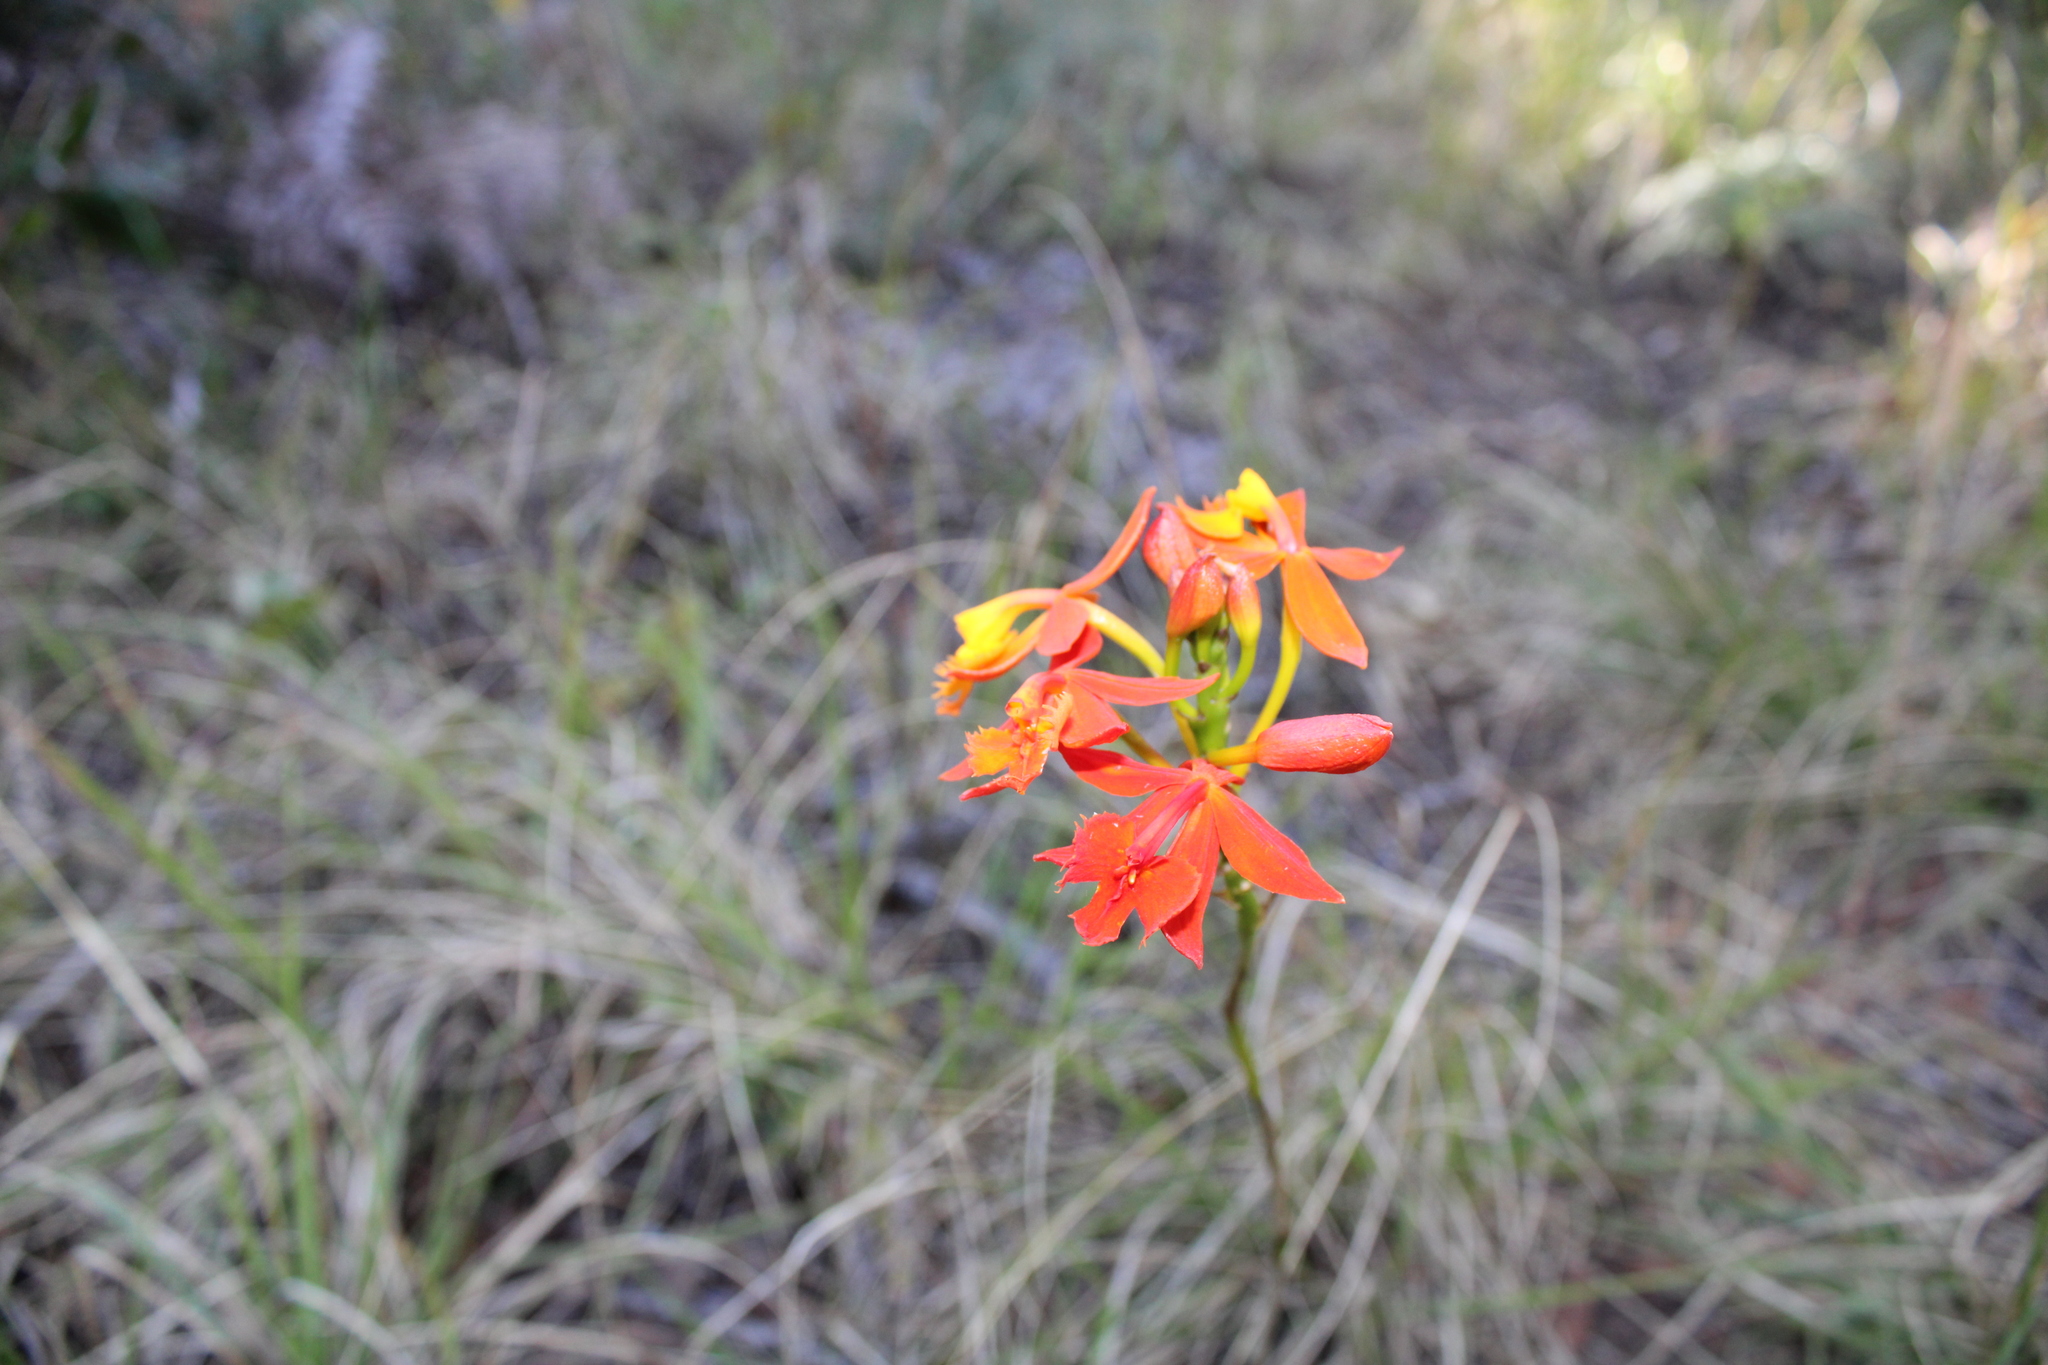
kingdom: Plantae
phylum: Tracheophyta
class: Liliopsida
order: Asparagales
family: Orchidaceae
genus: Epidendrum
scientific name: Epidendrum radicans
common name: Fire star orchid
